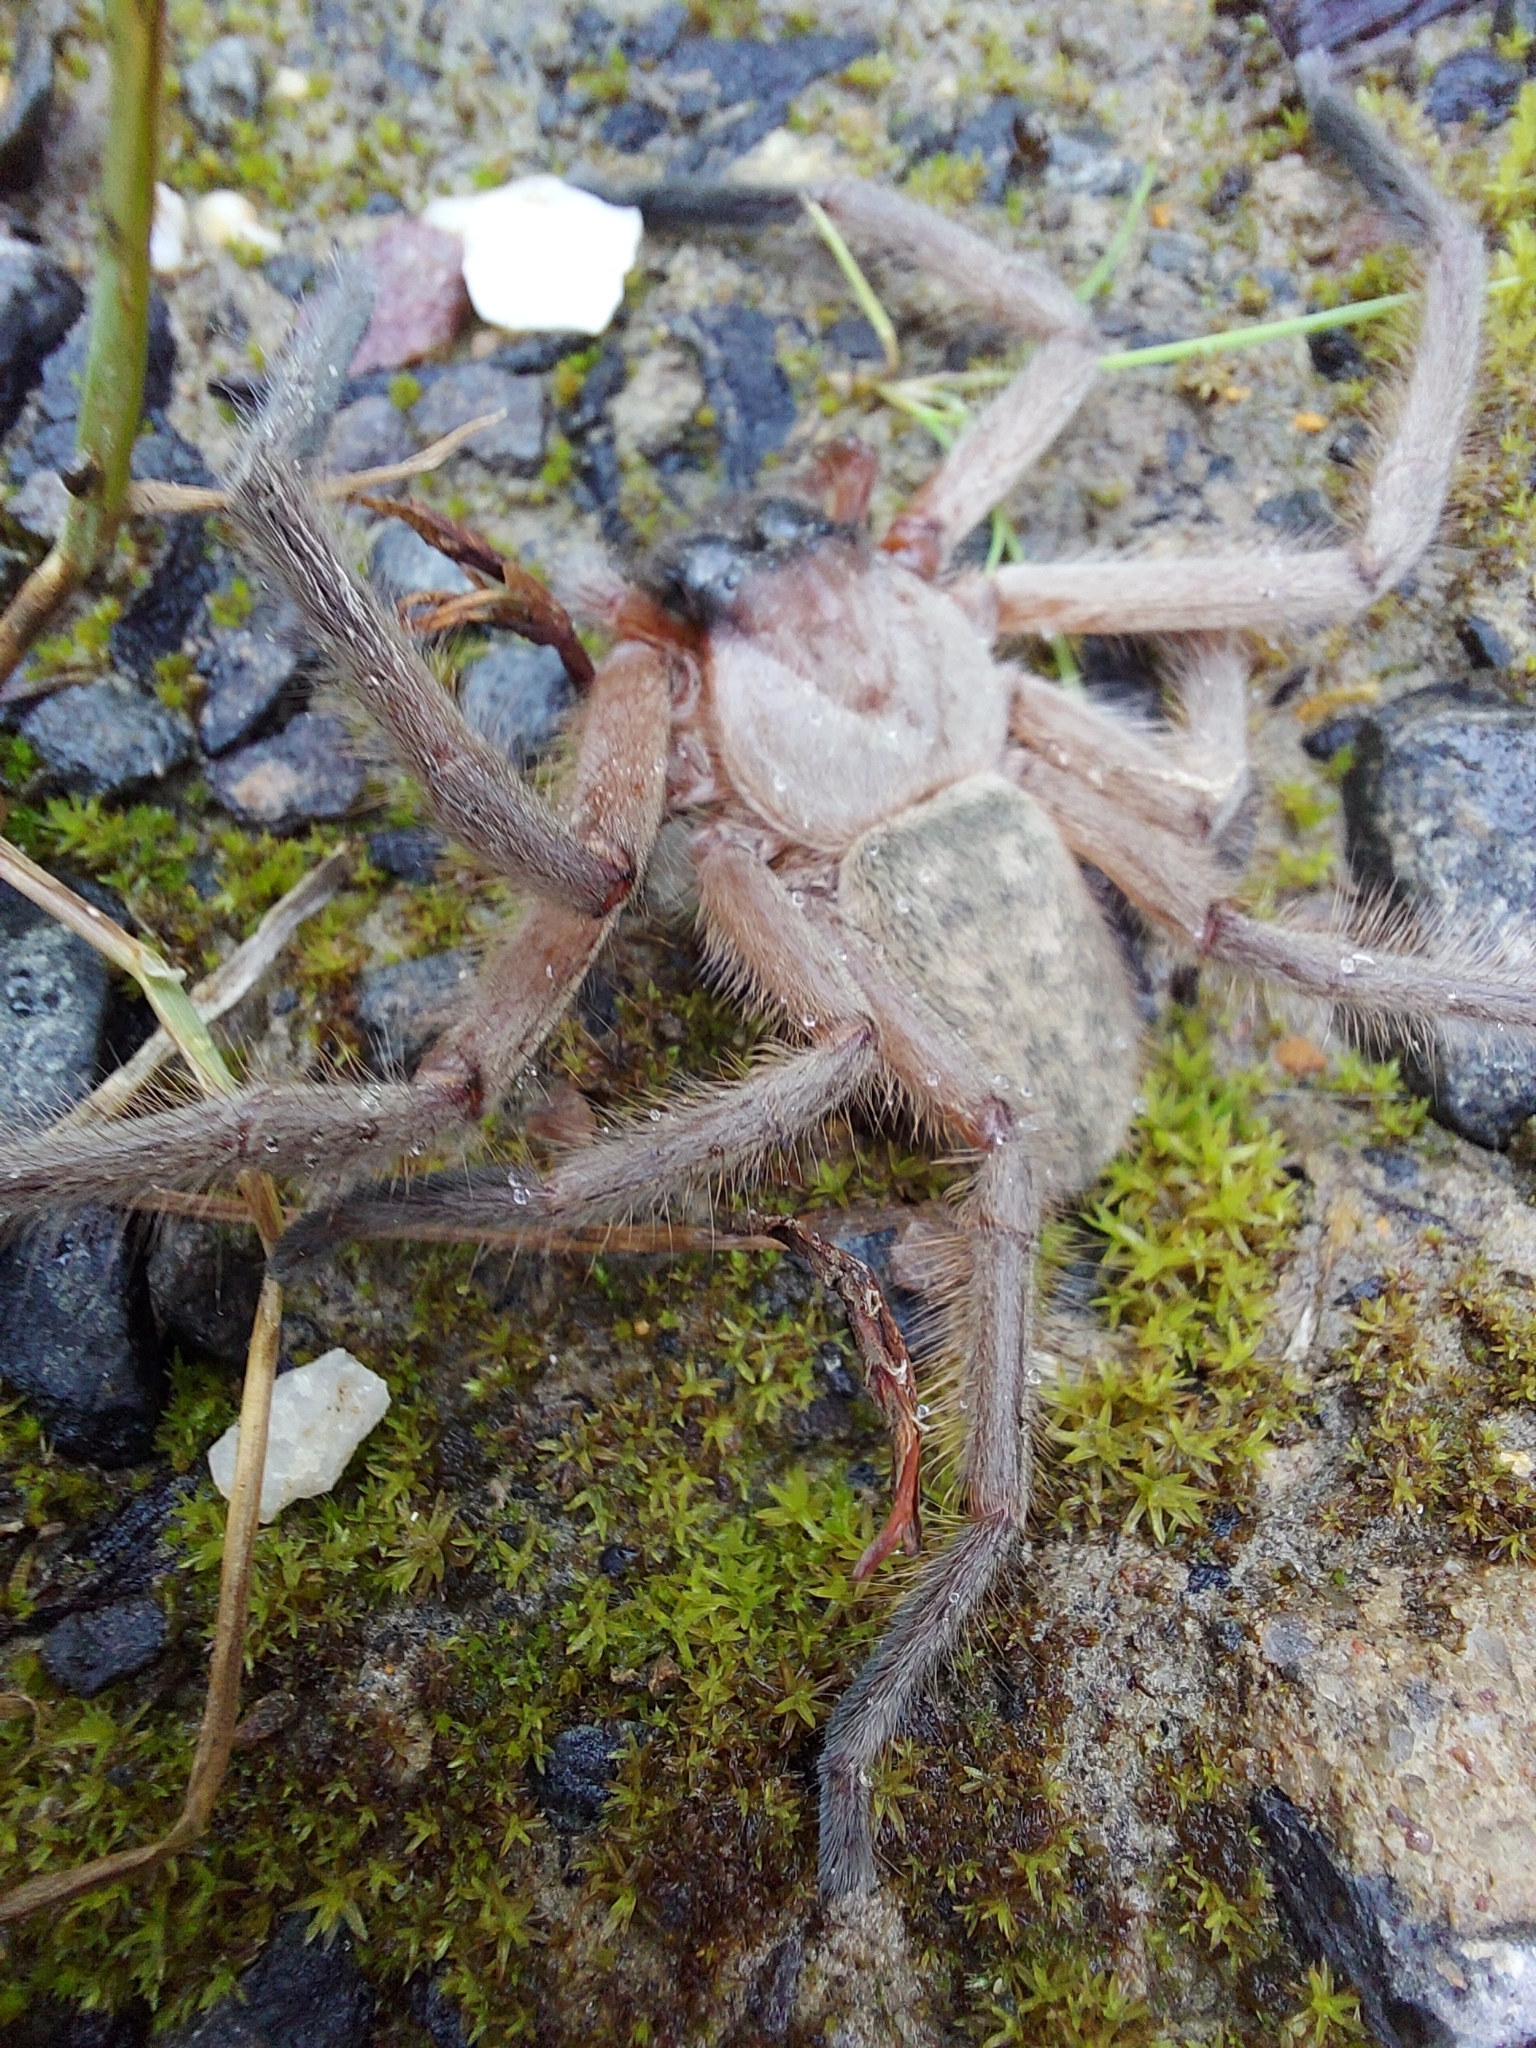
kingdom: Animalia
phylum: Arthropoda
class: Arachnida
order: Araneae
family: Sparassidae
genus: Delena
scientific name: Delena cancerides
